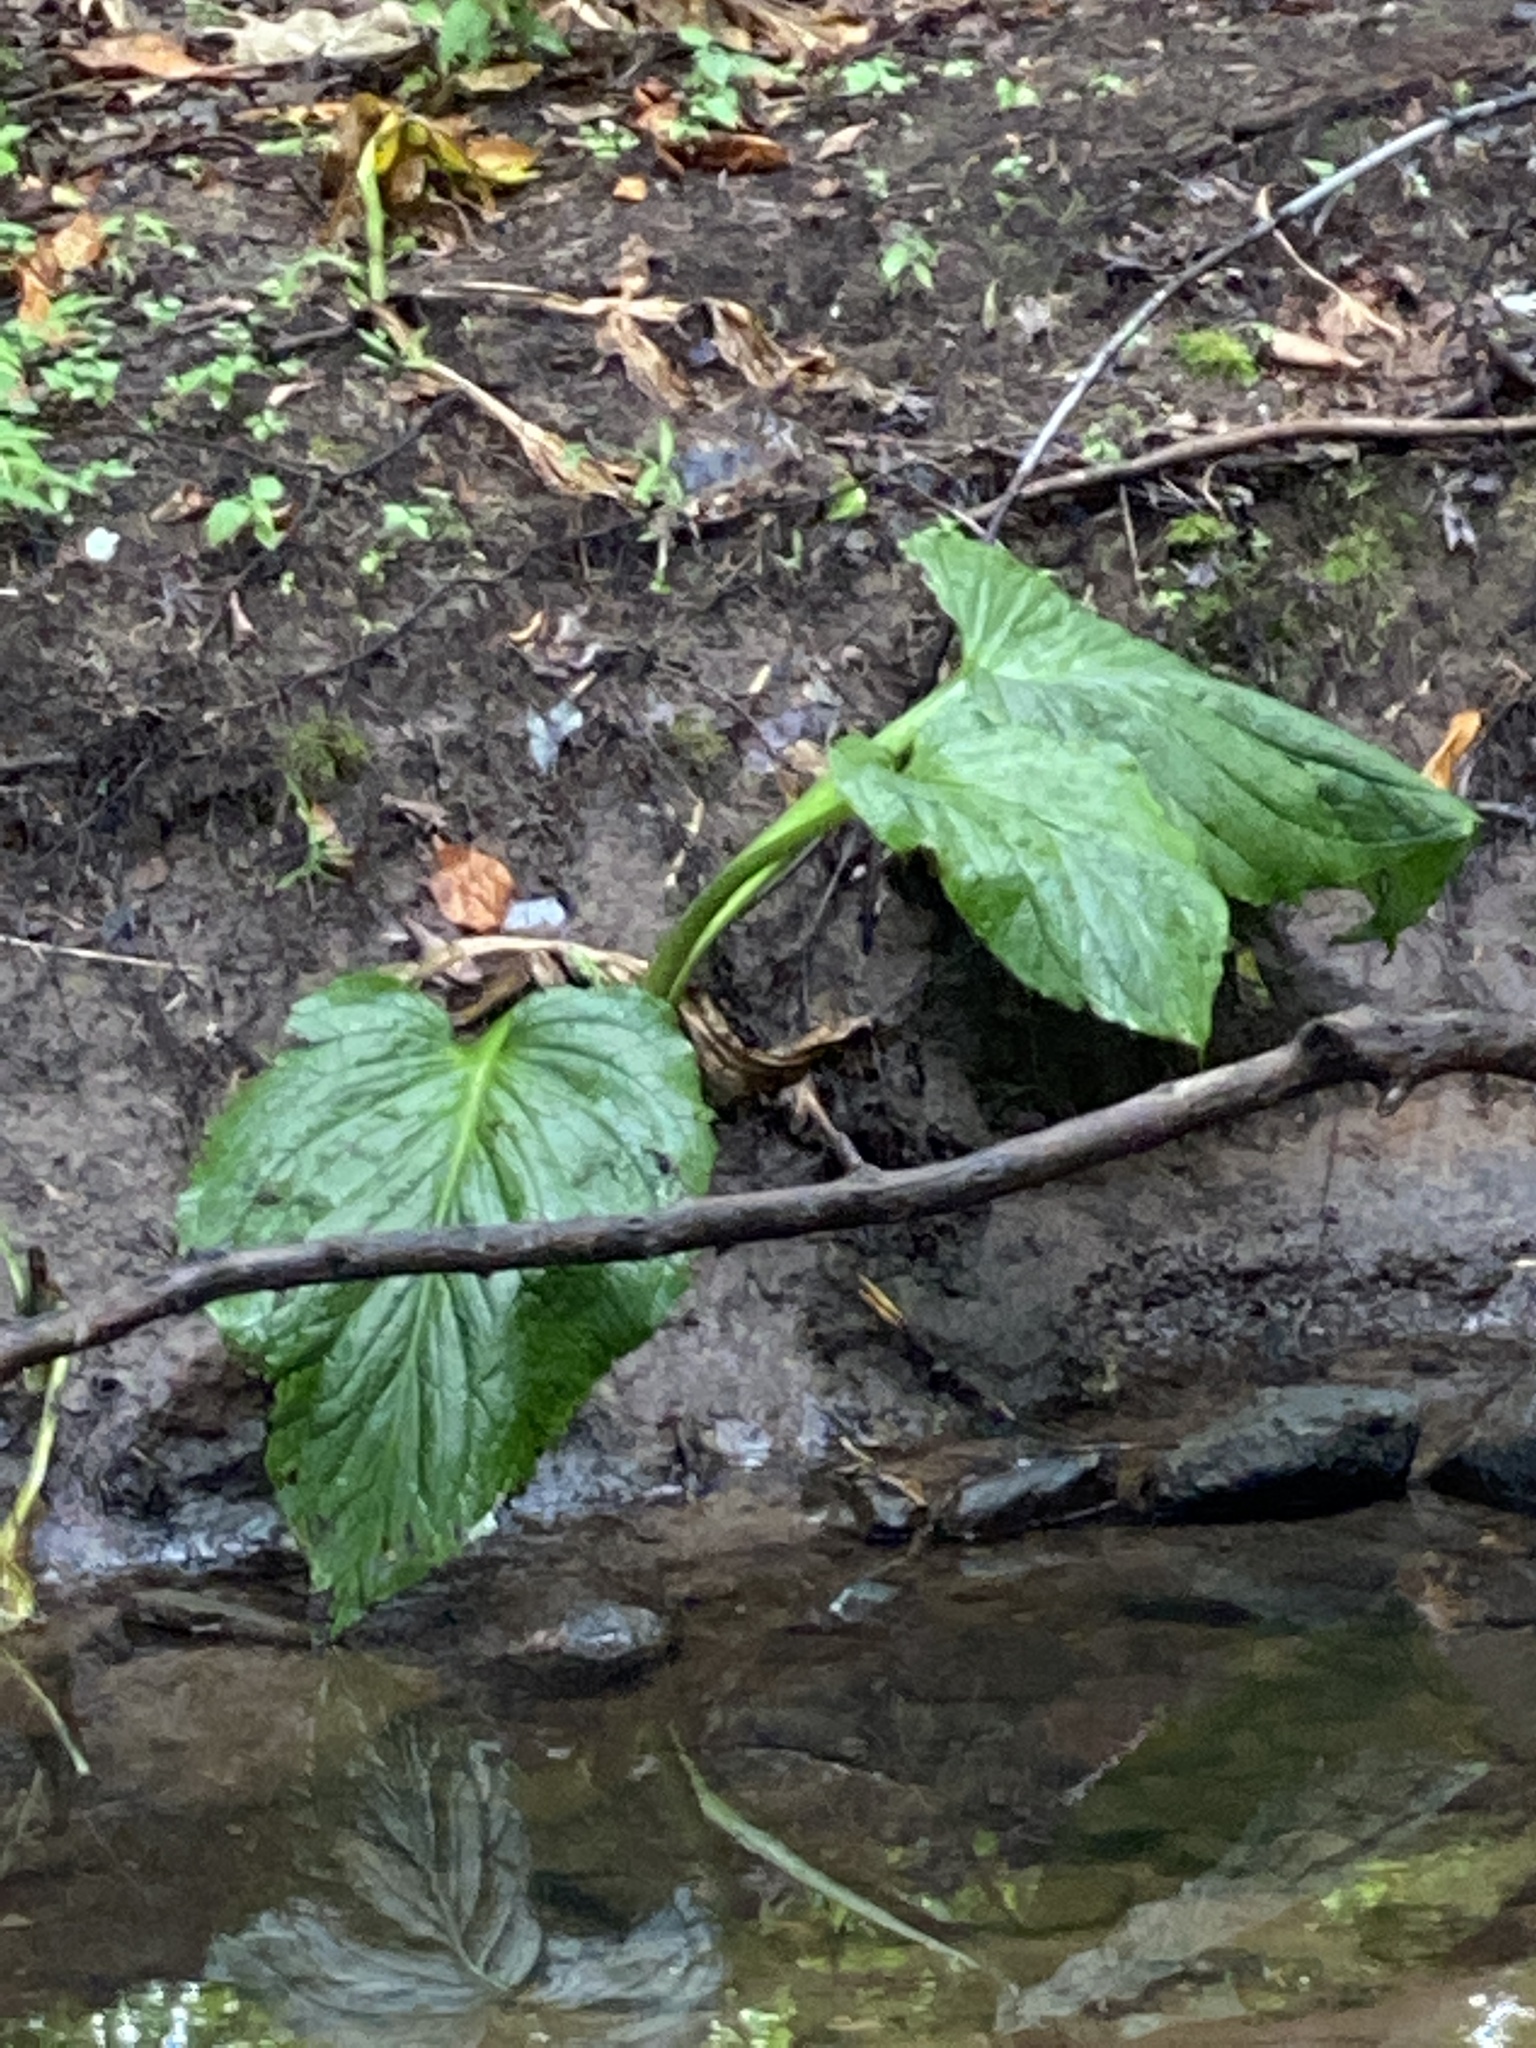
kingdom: Plantae
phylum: Tracheophyta
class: Liliopsida
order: Alismatales
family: Araceae
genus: Symplocarpus
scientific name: Symplocarpus foetidus
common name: Eastern skunk cabbage
